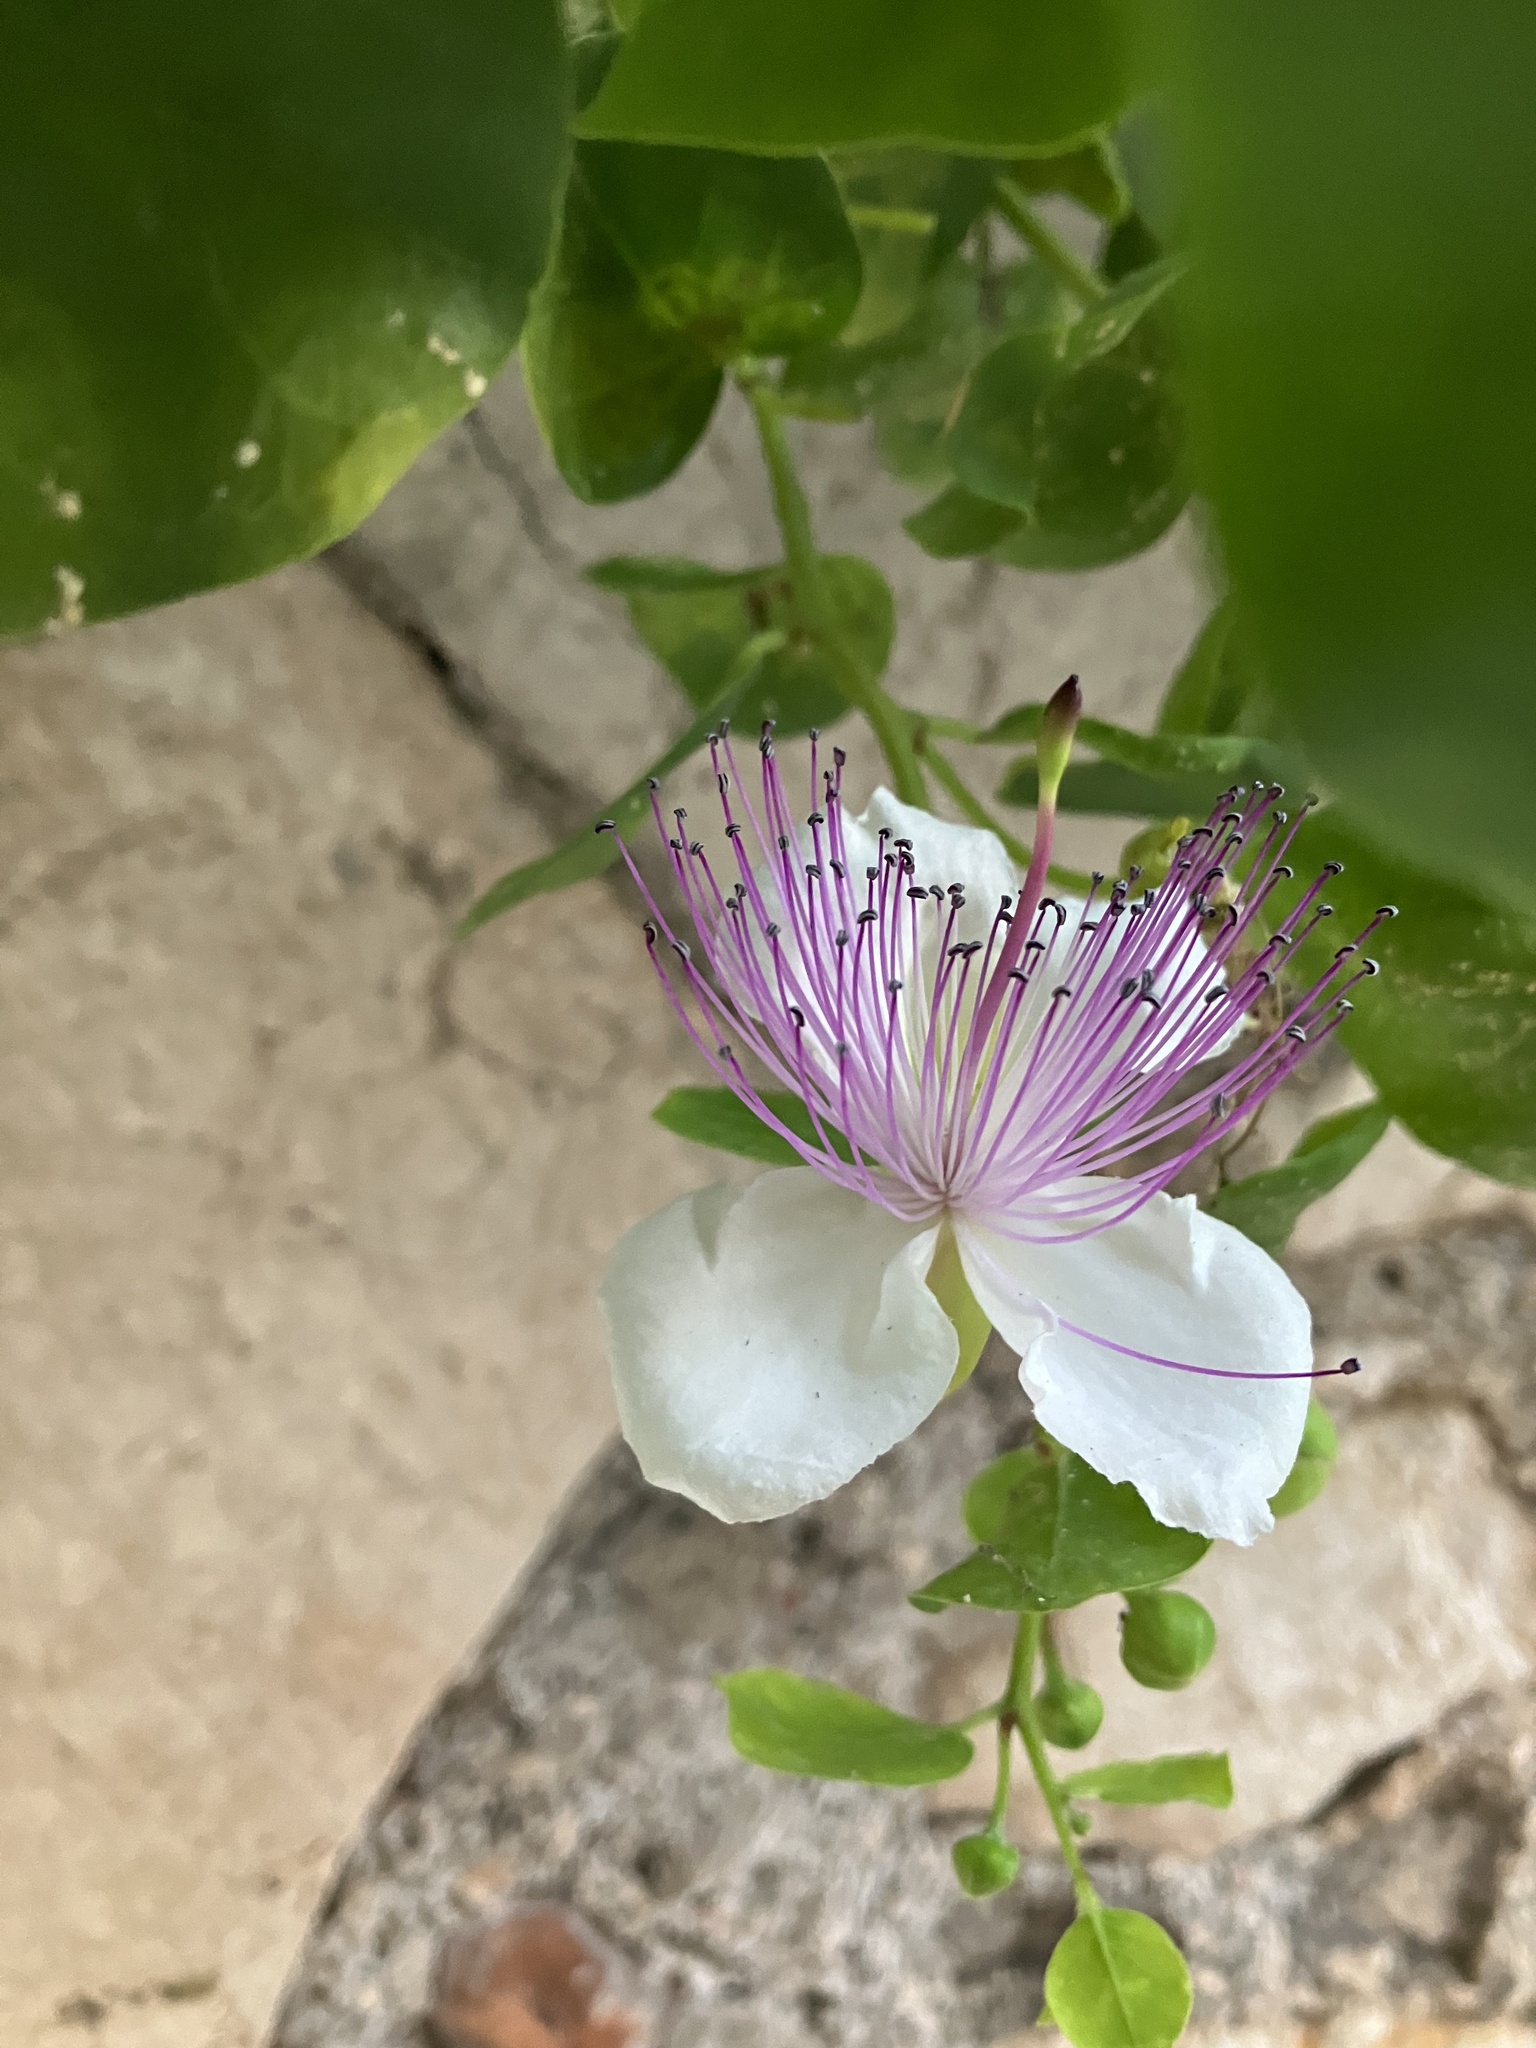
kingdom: Plantae
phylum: Tracheophyta
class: Magnoliopsida
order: Brassicales
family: Capparaceae
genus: Capparis
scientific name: Capparis orientalis
